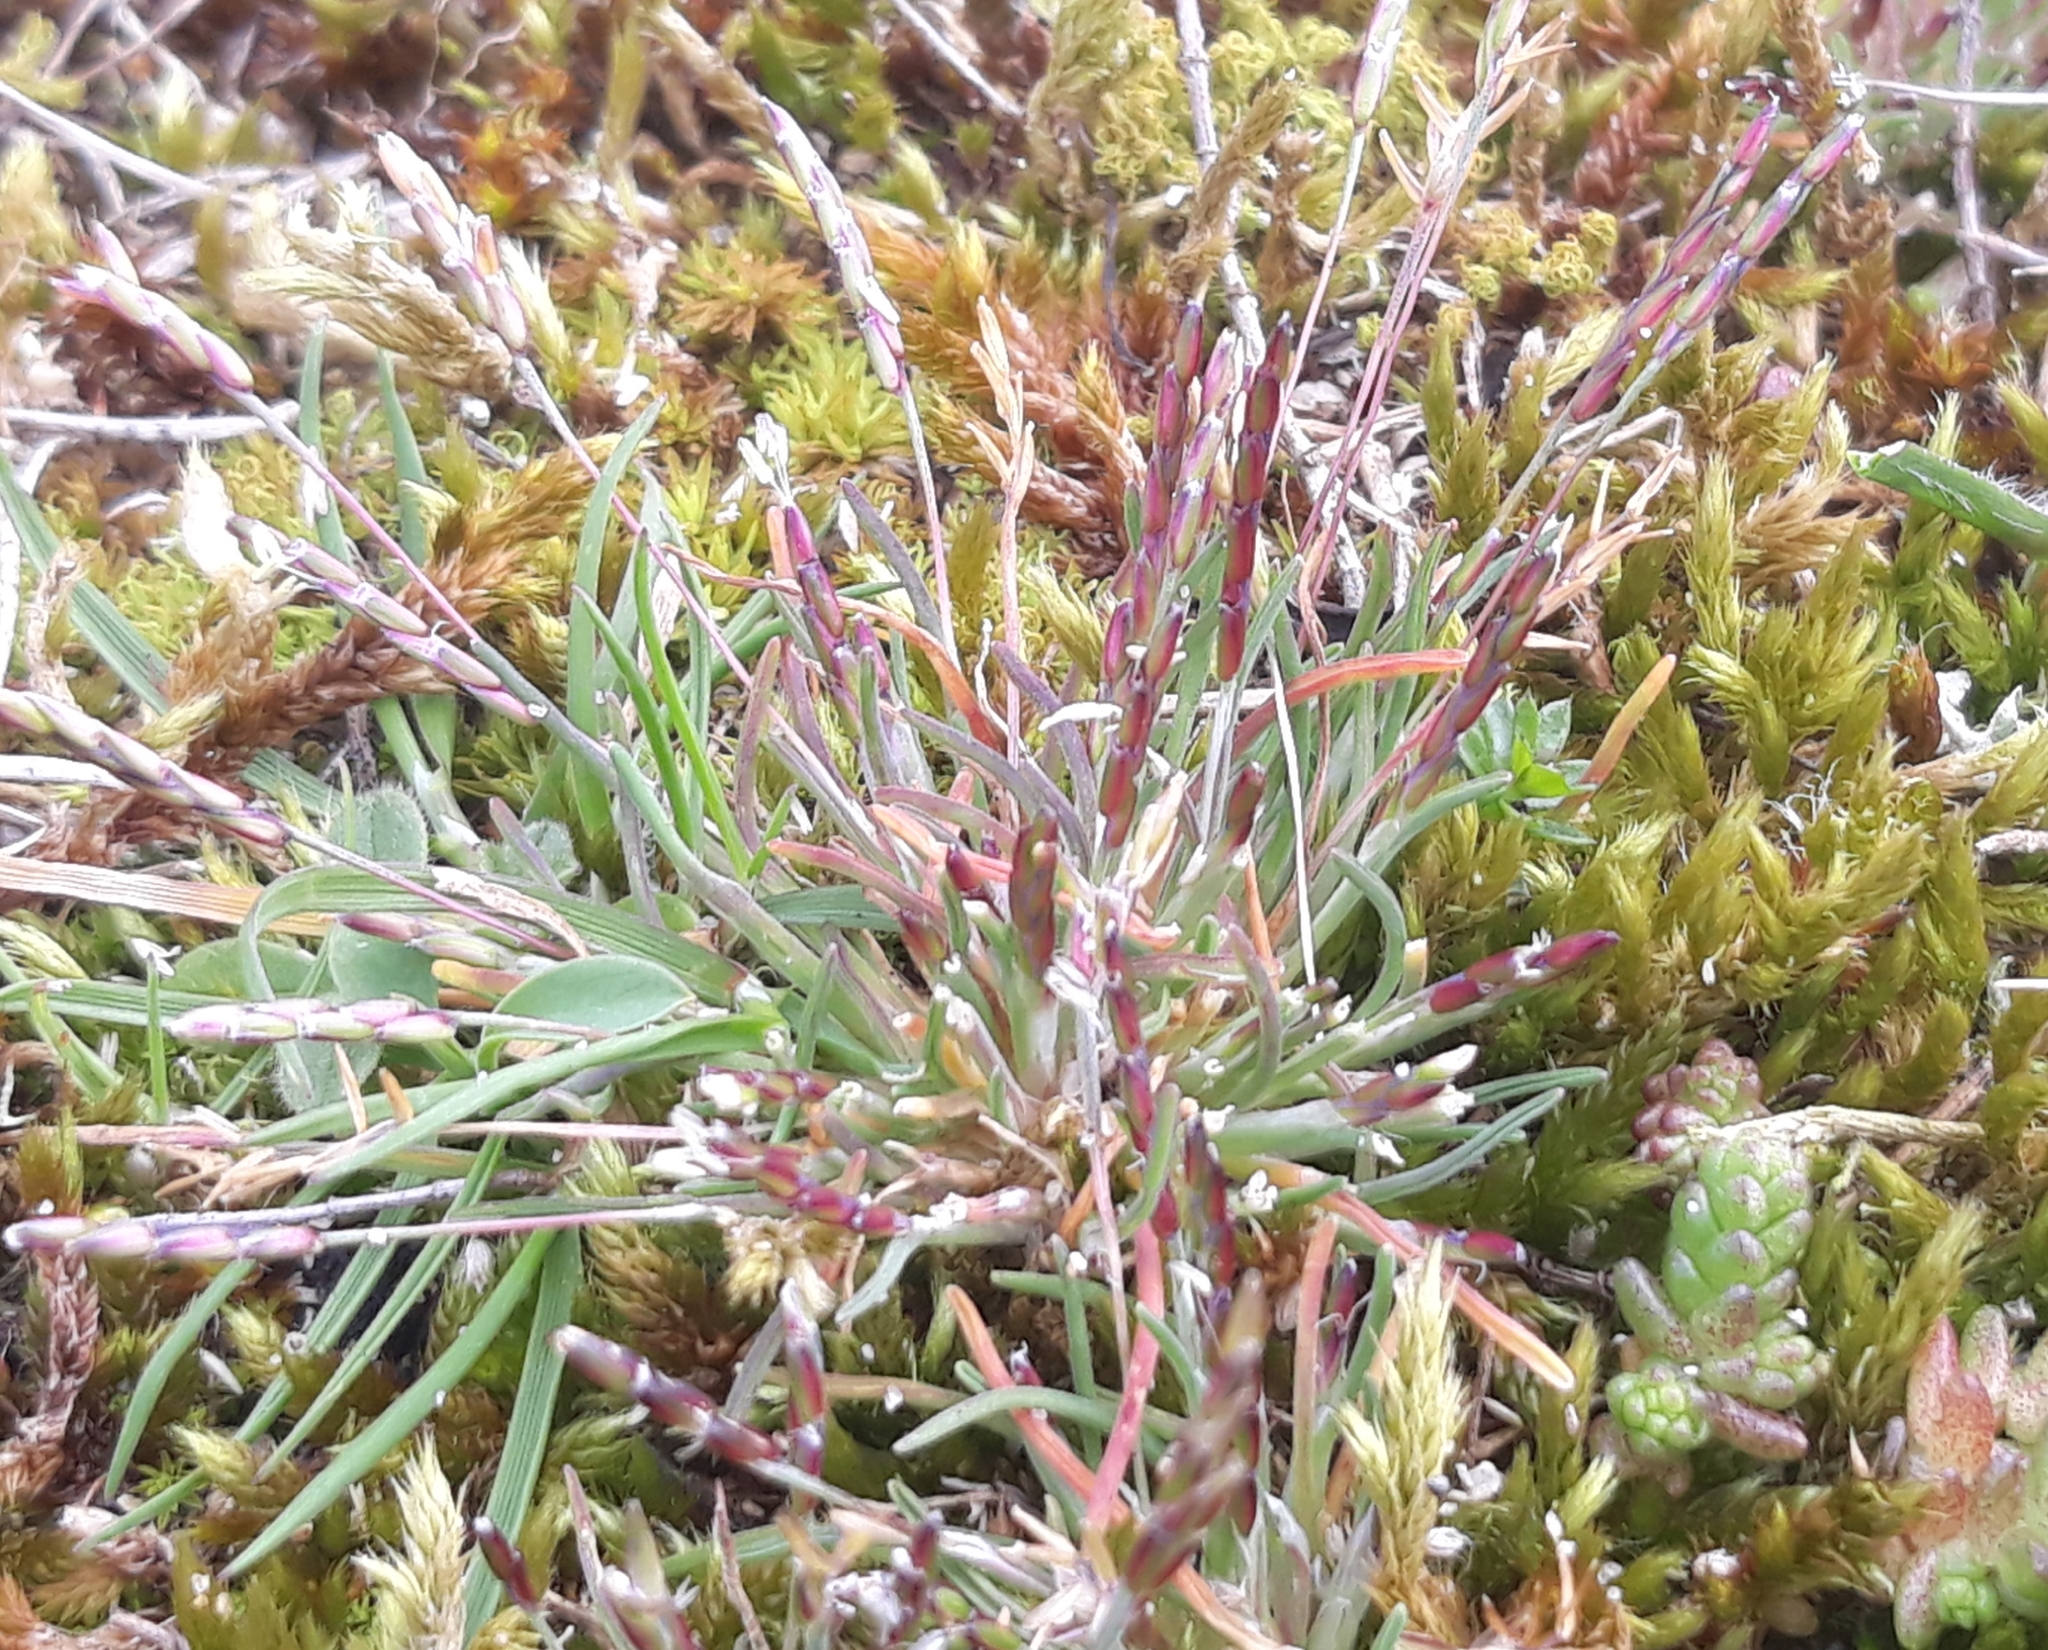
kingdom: Plantae
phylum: Tracheophyta
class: Liliopsida
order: Poales
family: Poaceae
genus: Mibora
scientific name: Mibora minima
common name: Early sand-grass
